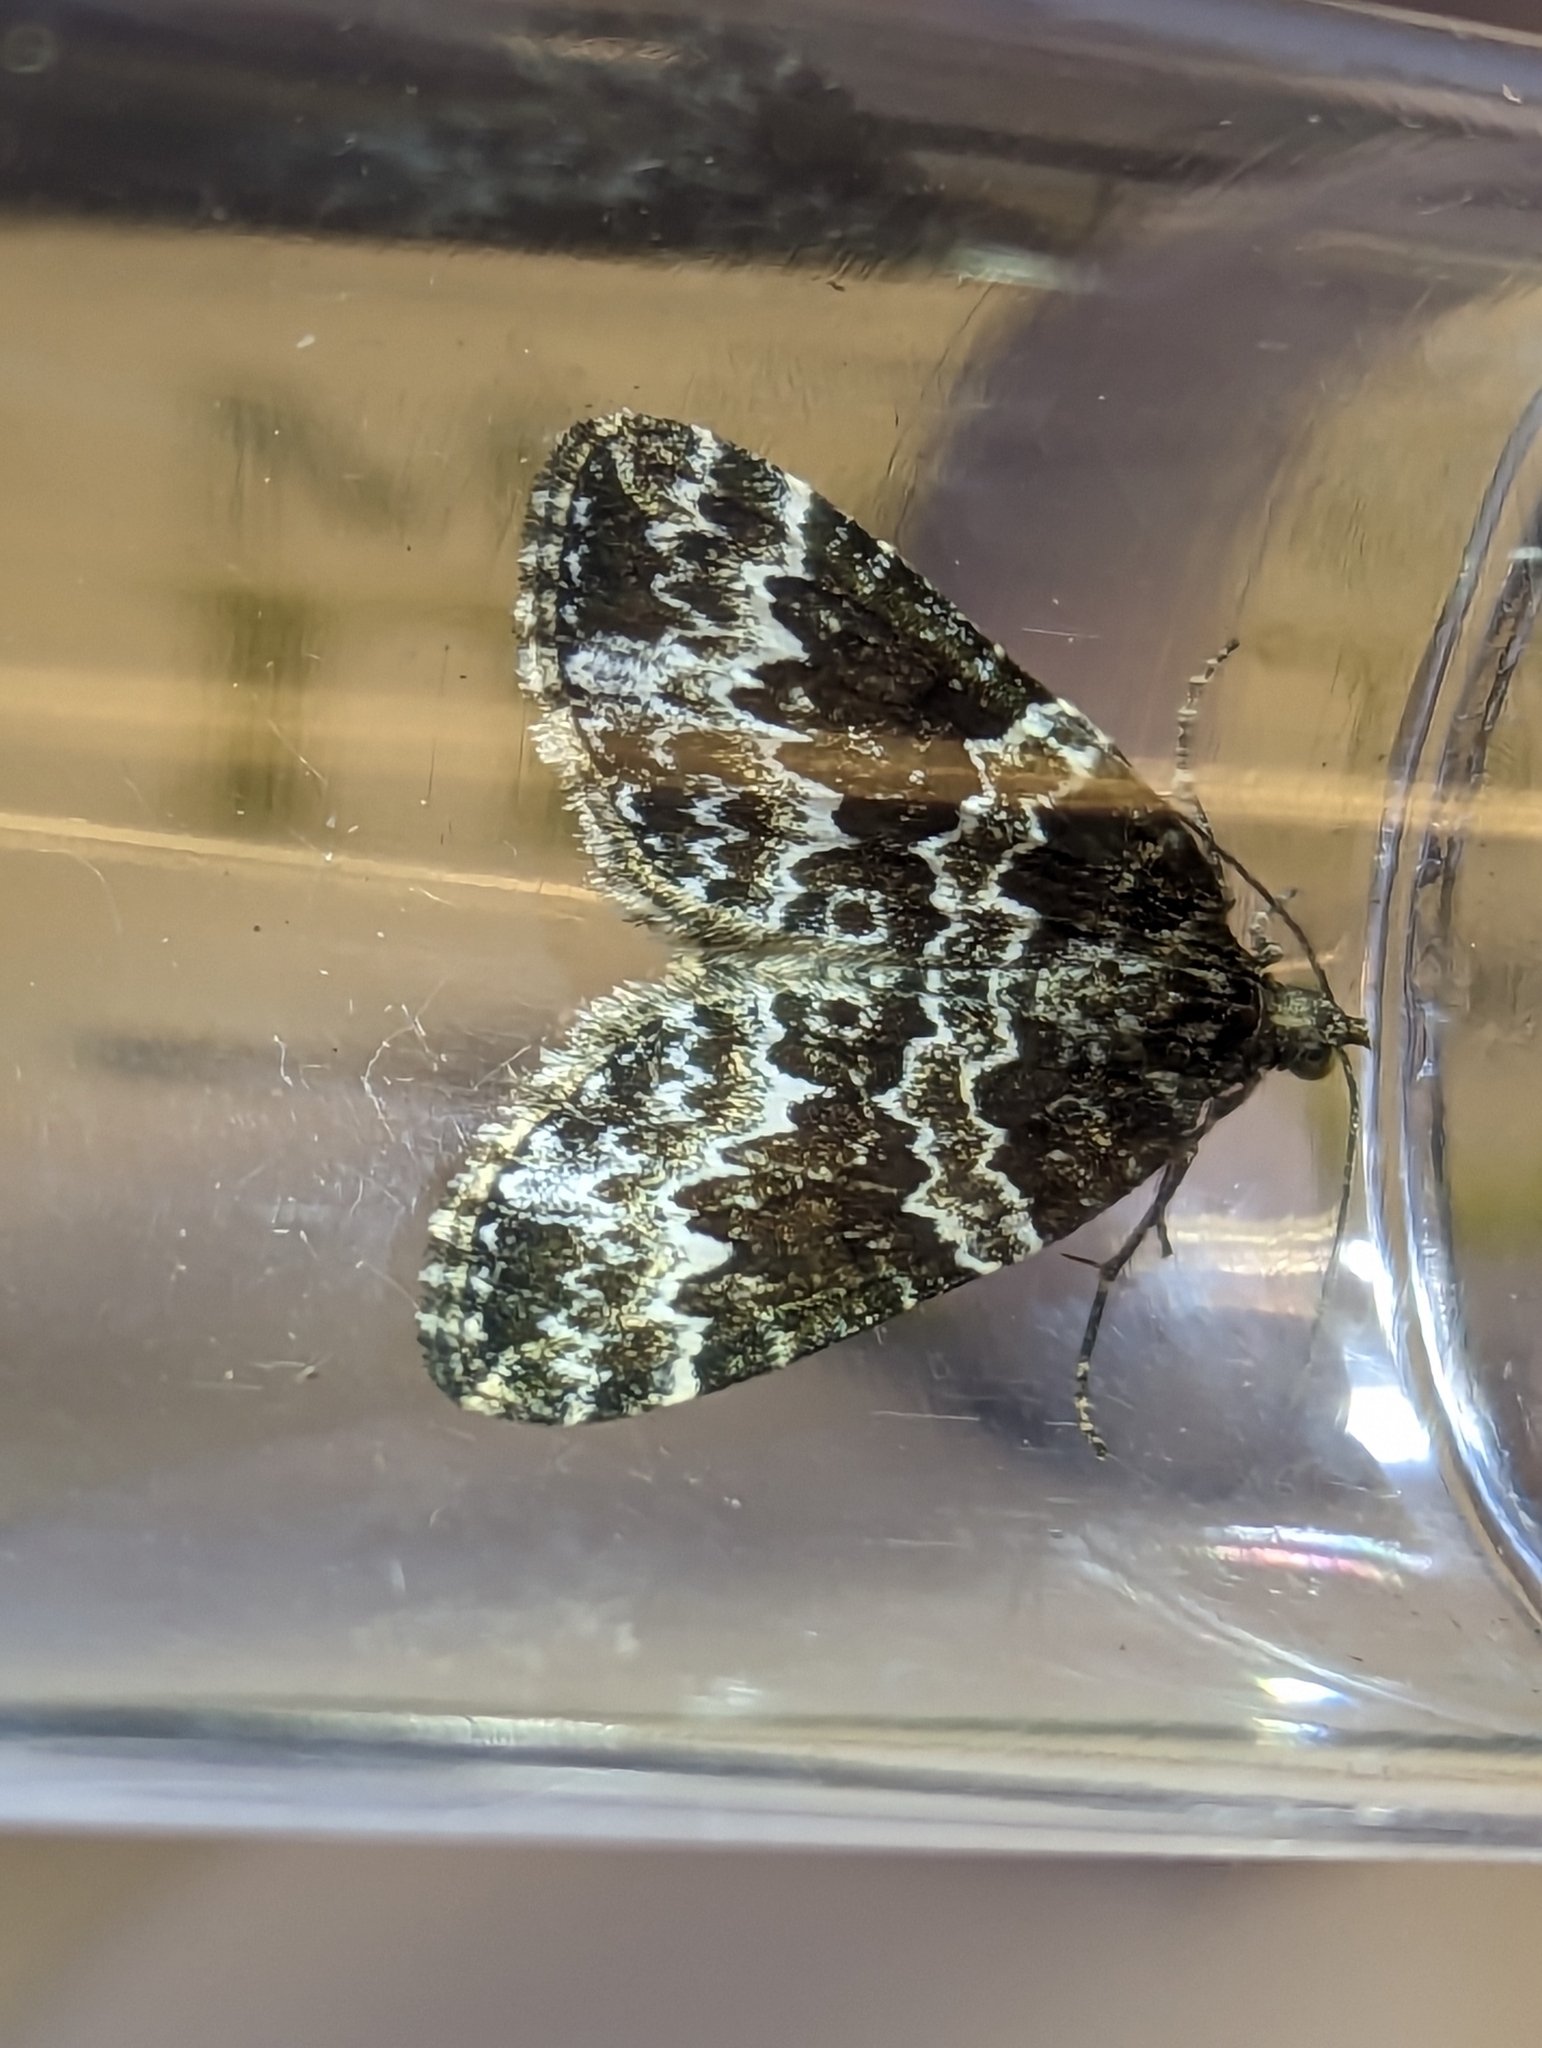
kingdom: Animalia
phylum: Arthropoda
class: Insecta
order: Lepidoptera
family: Geometridae
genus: Electrophaes
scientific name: Electrophaes corylata
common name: Broken-barred carpet
